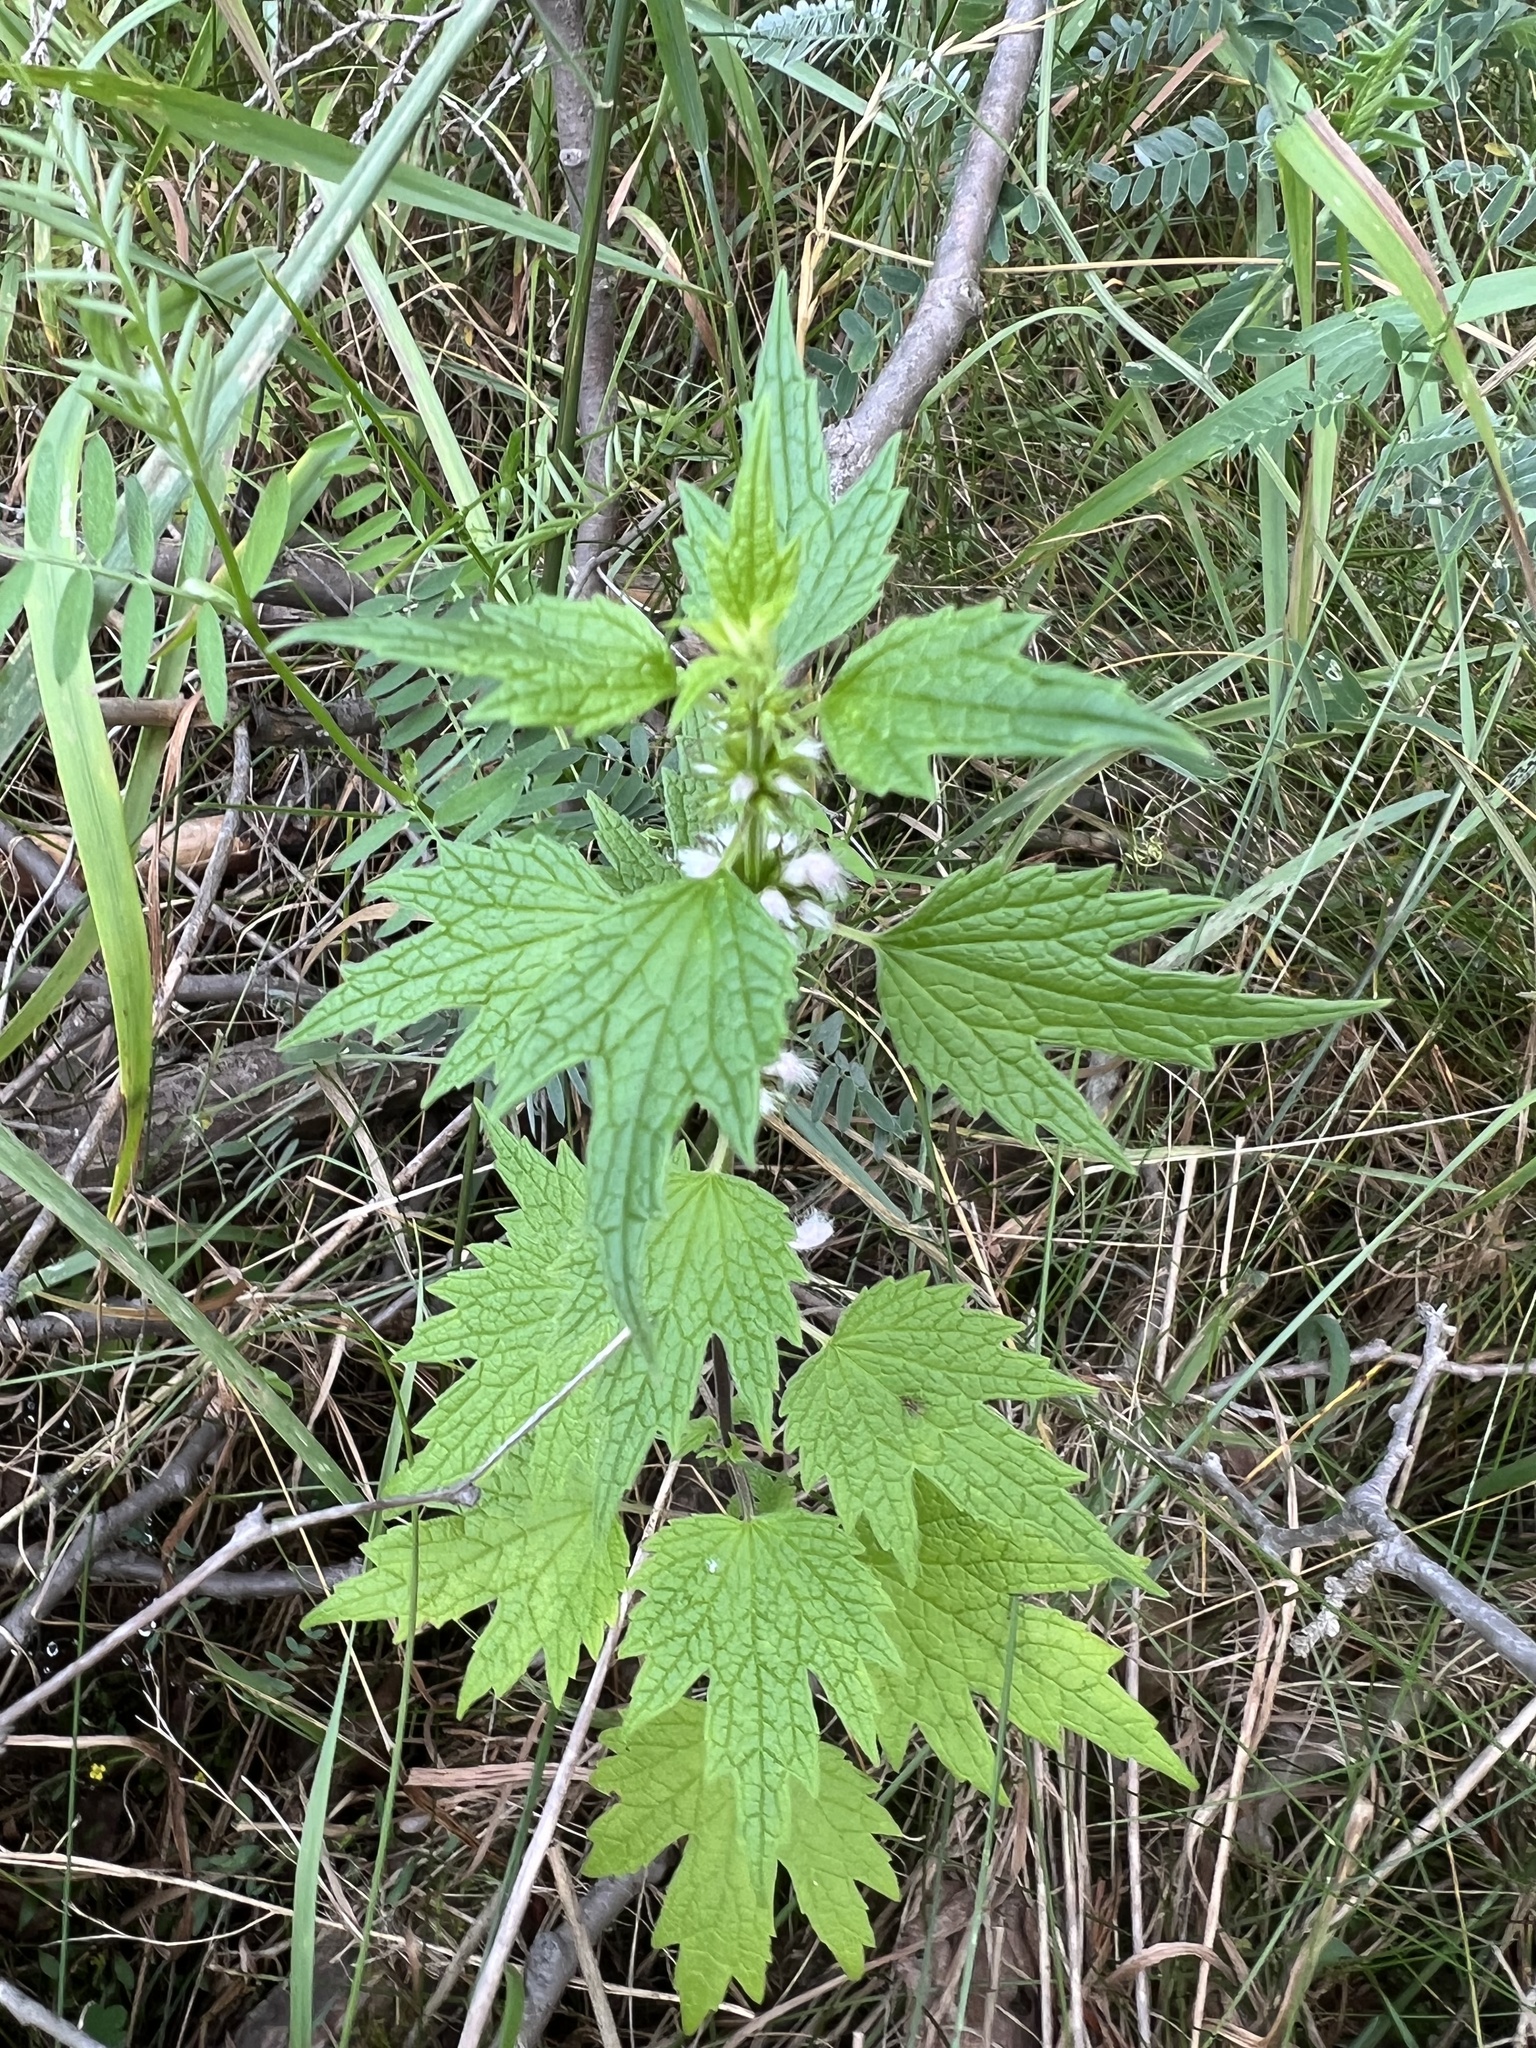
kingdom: Plantae
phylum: Tracheophyta
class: Magnoliopsida
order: Lamiales
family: Lamiaceae
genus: Leonurus
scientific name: Leonurus cardiaca
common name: Motherwort
